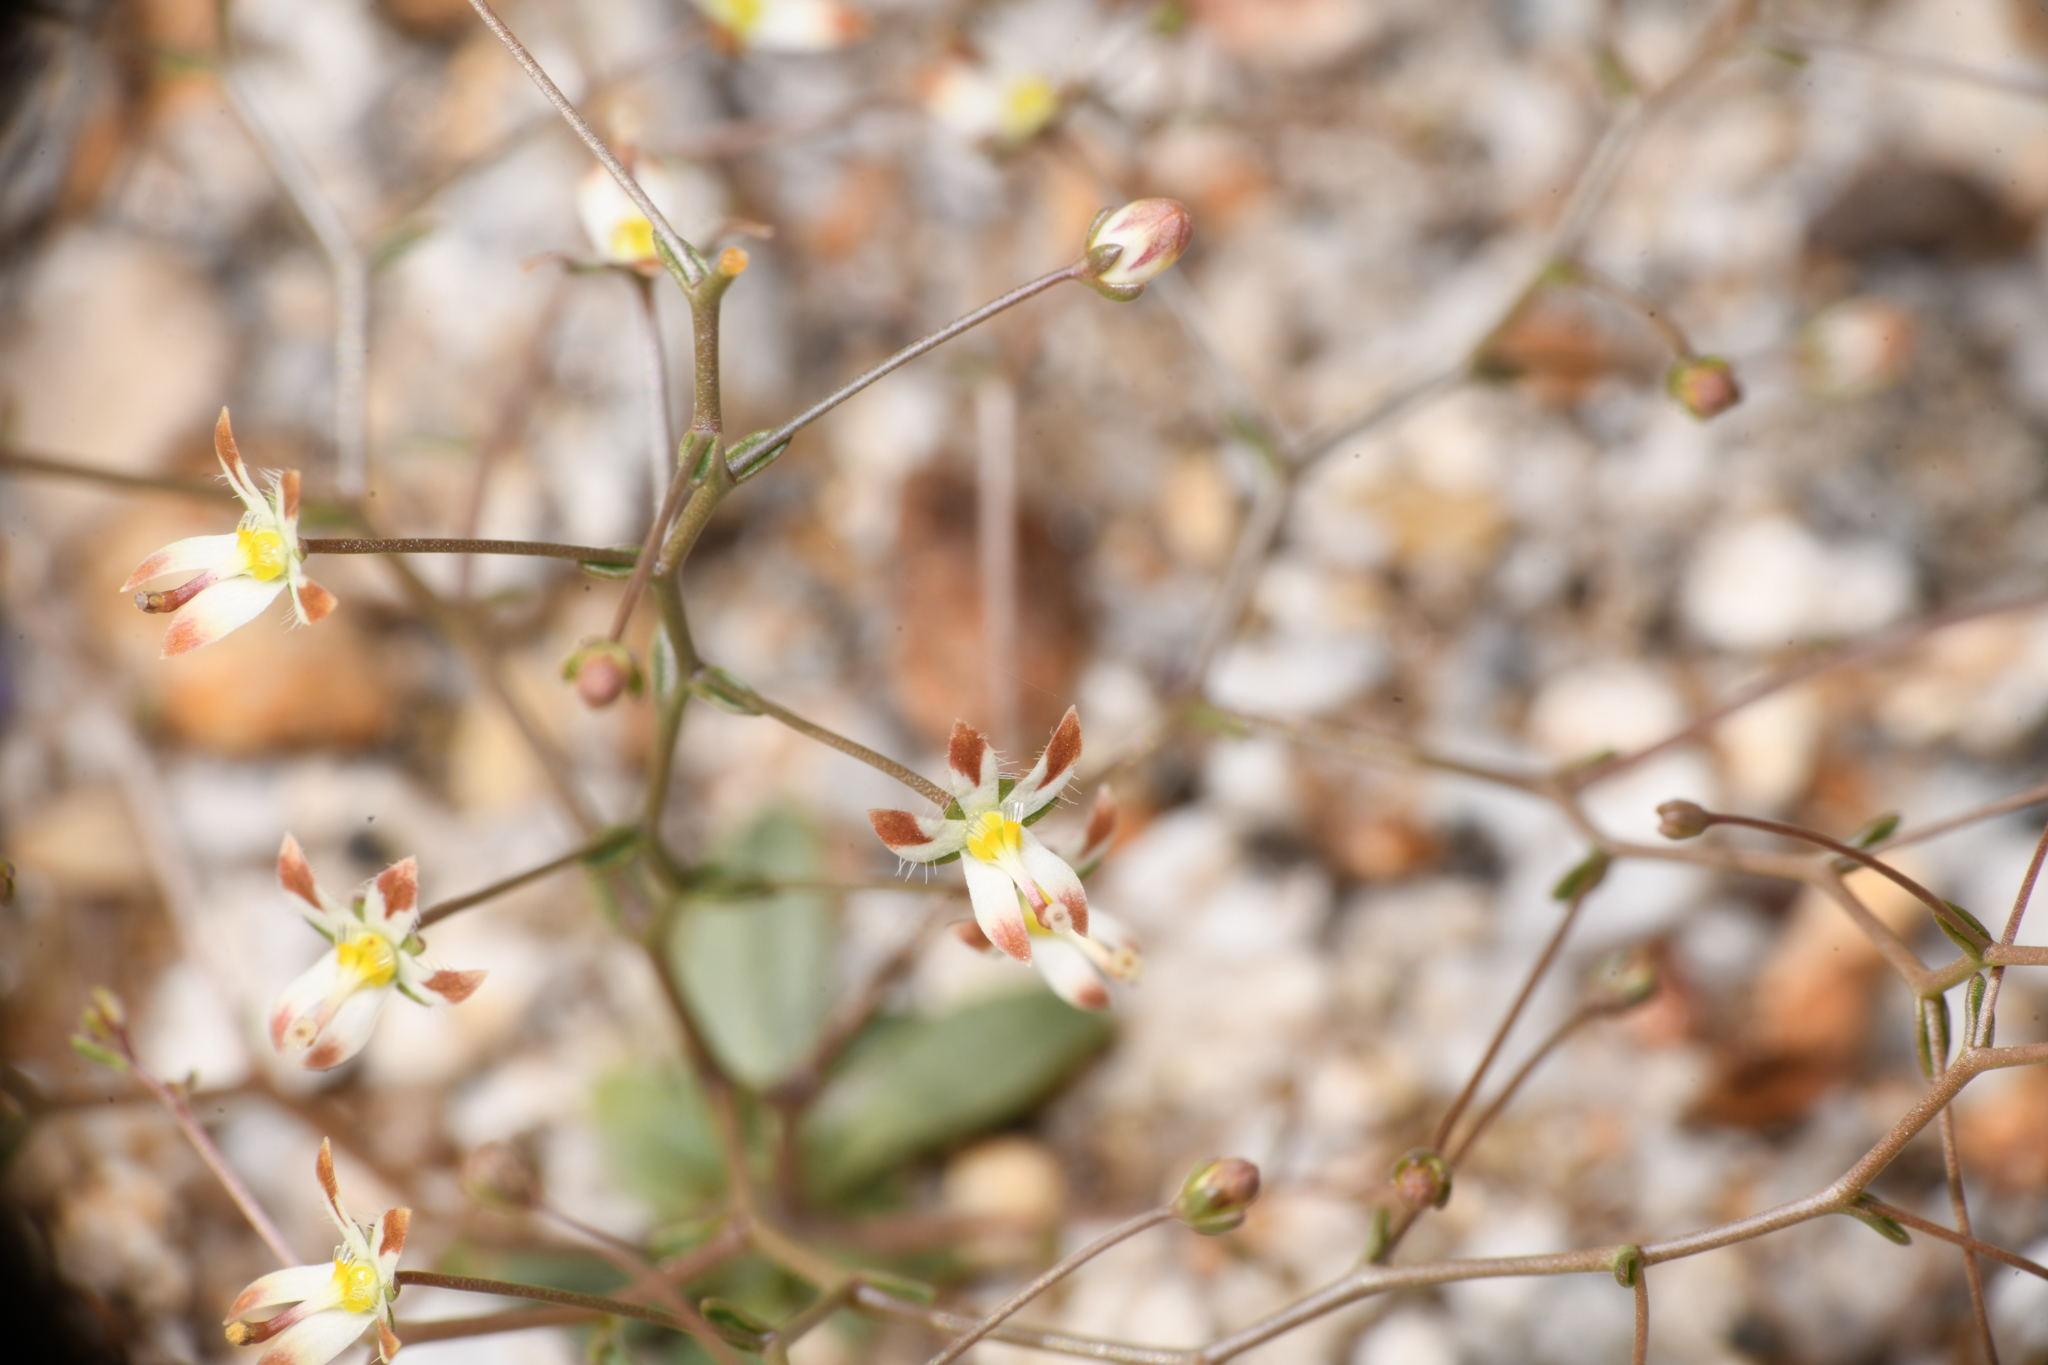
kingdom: Plantae
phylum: Tracheophyta
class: Magnoliopsida
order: Asterales
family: Campanulaceae
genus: Nemacladus
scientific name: Nemacladus rubescens
